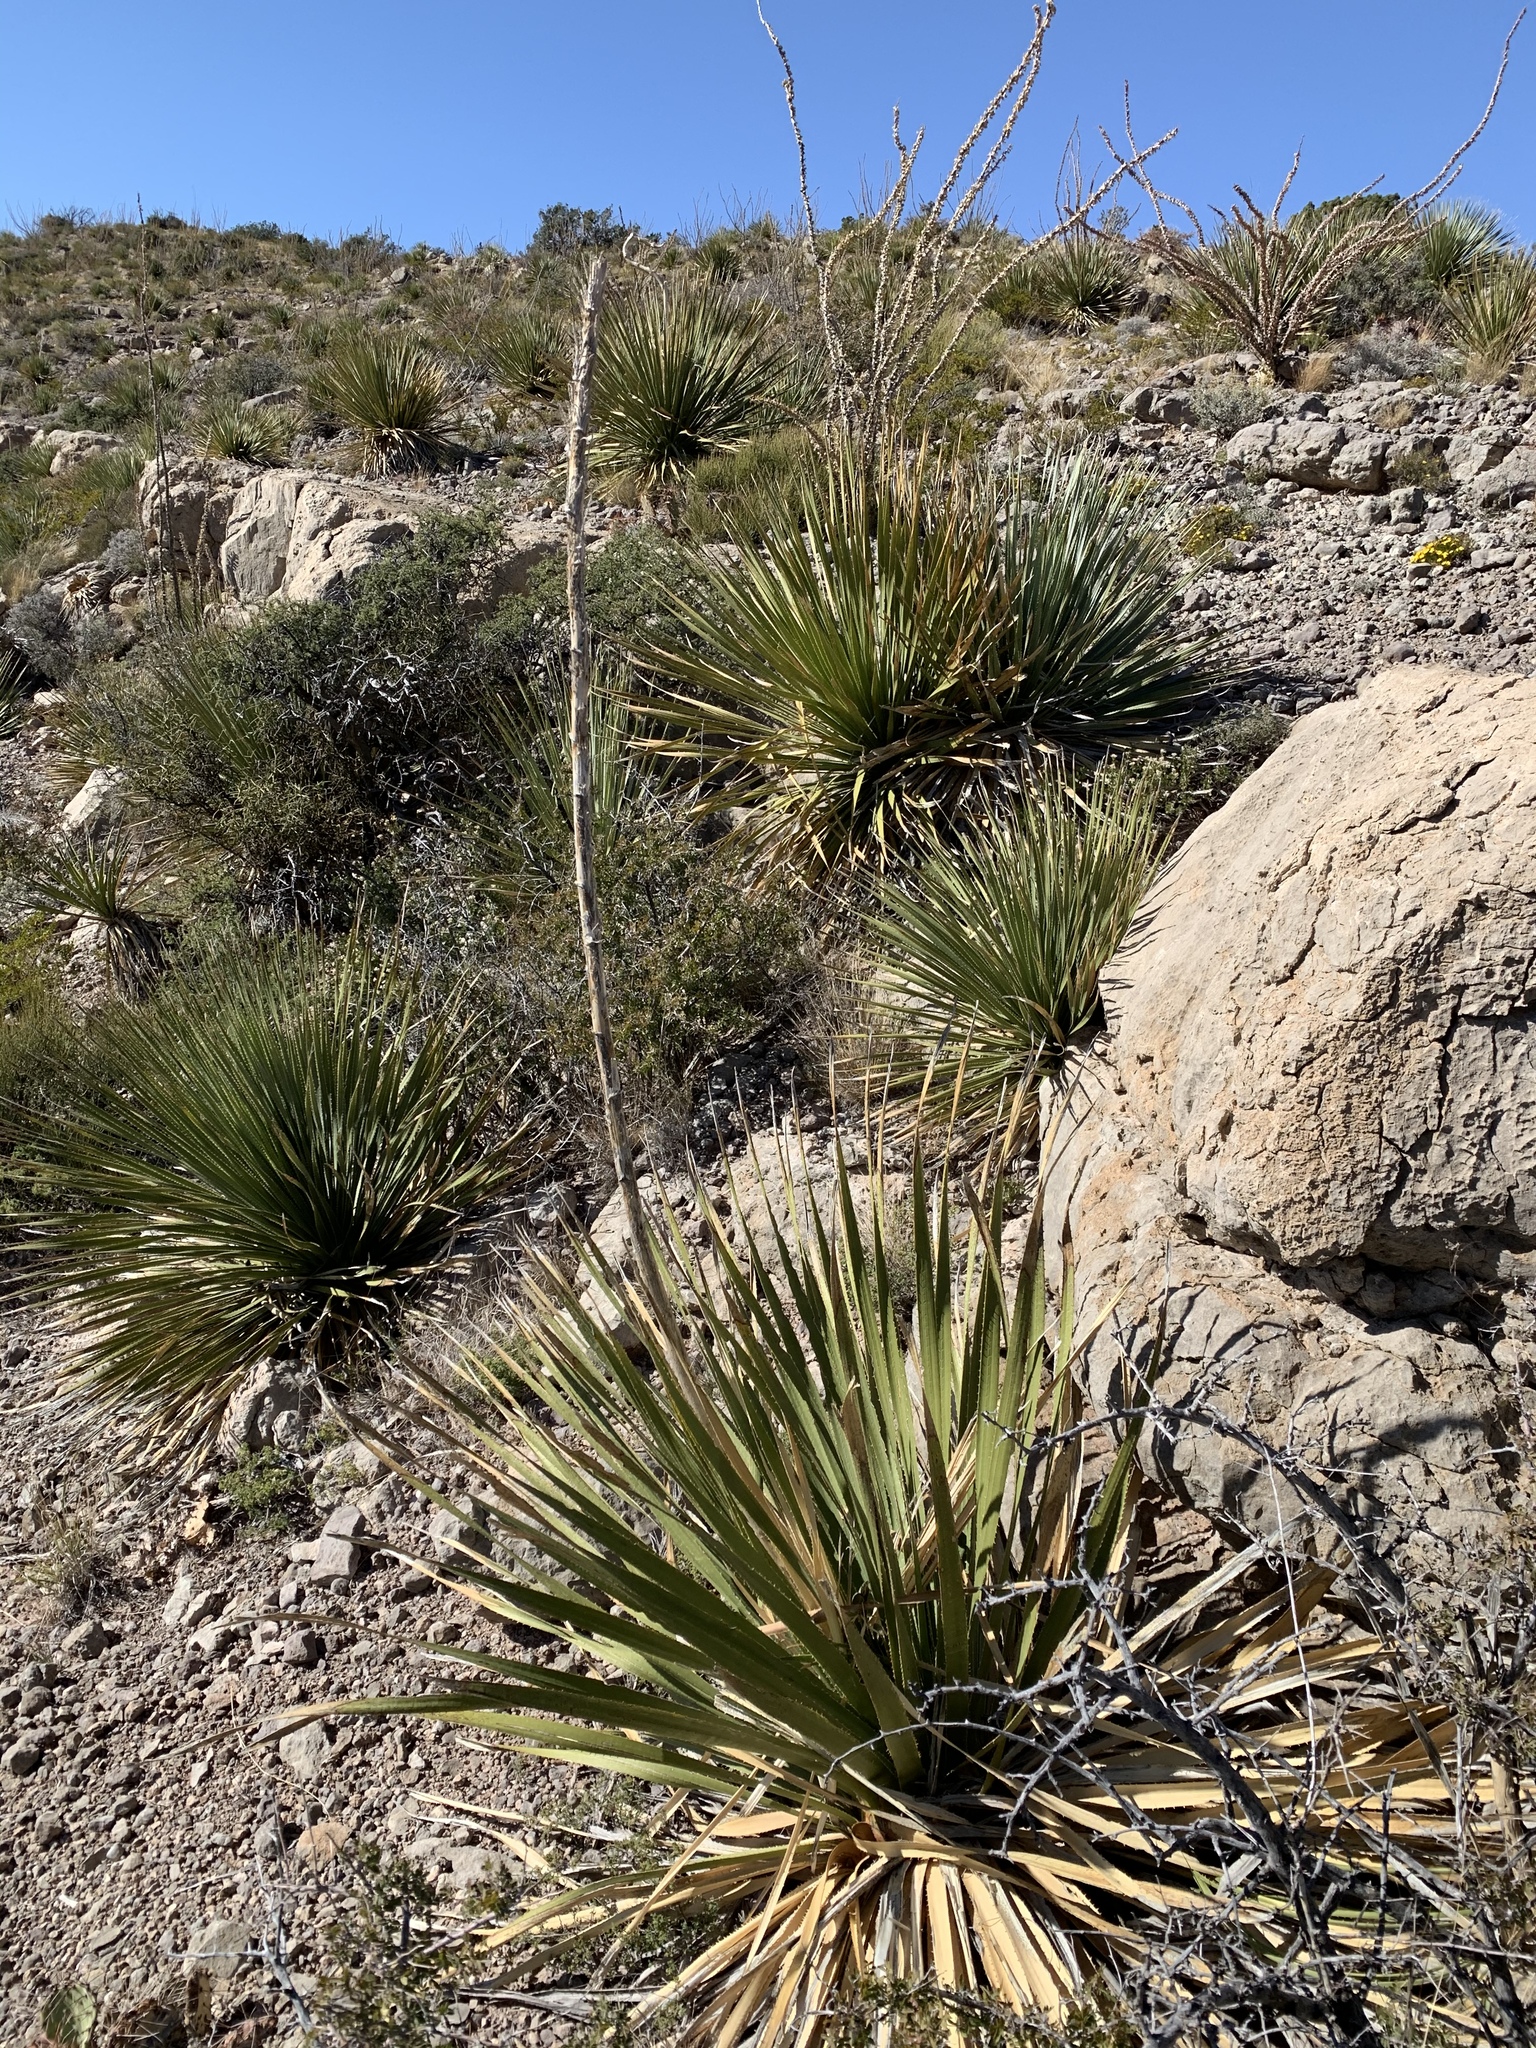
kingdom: Plantae
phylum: Tracheophyta
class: Liliopsida
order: Asparagales
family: Asparagaceae
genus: Dasylirion
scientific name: Dasylirion wheeleri
